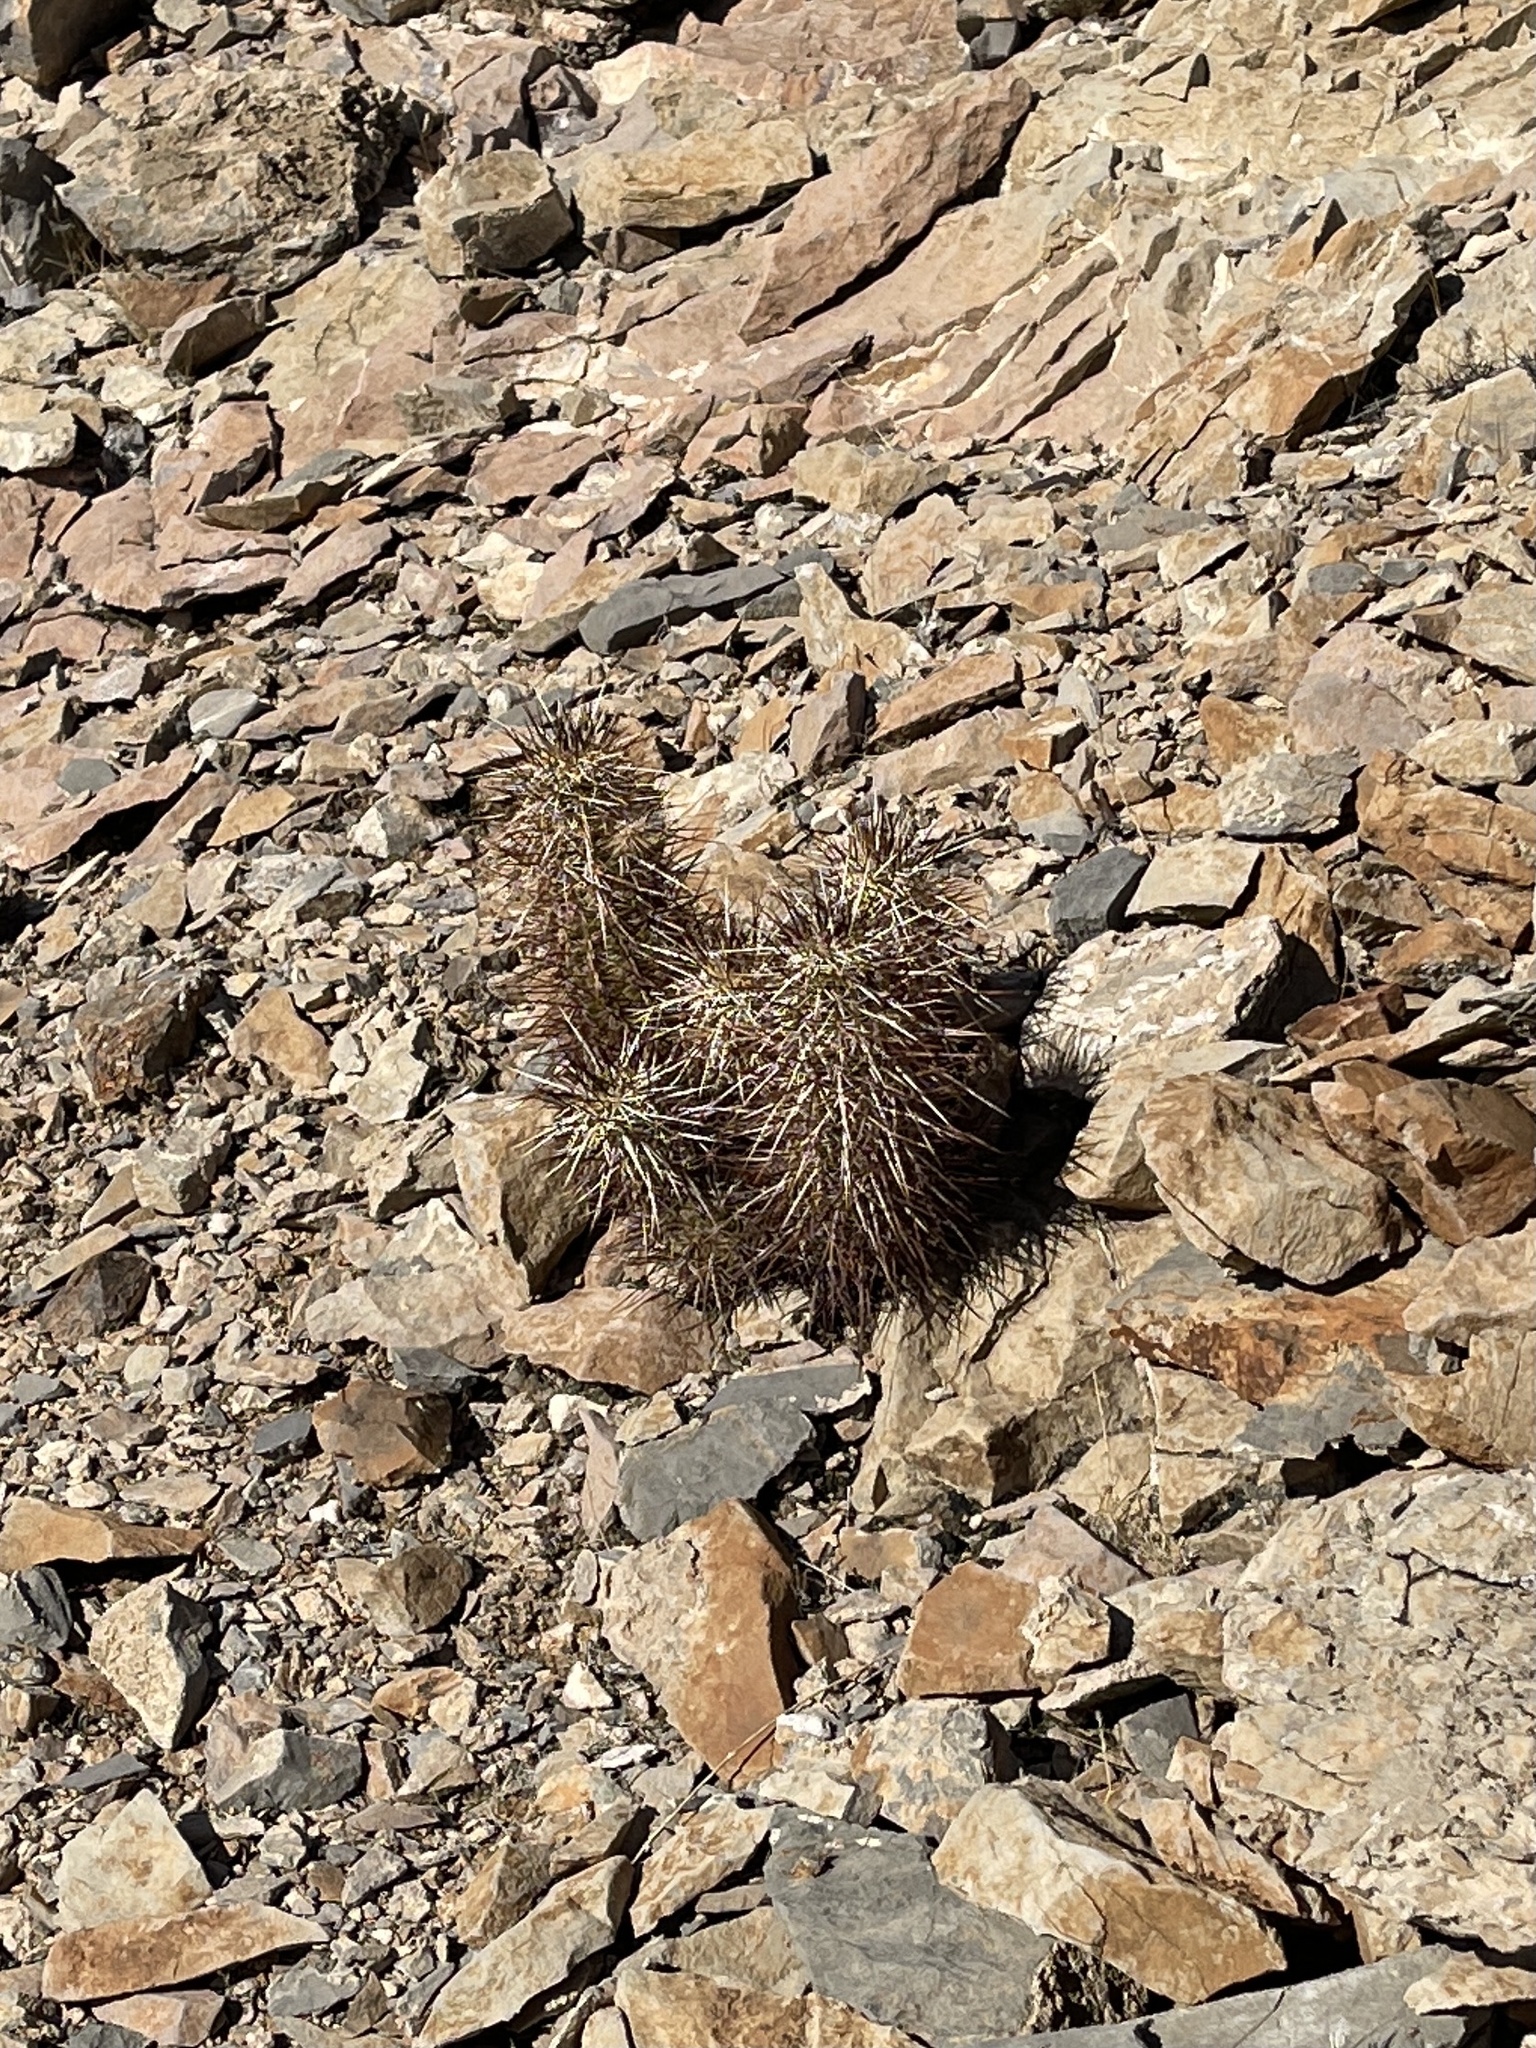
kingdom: Plantae
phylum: Tracheophyta
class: Magnoliopsida
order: Caryophyllales
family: Cactaceae
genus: Echinocereus
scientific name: Echinocereus engelmannii
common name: Engelmann's hedgehog cactus
